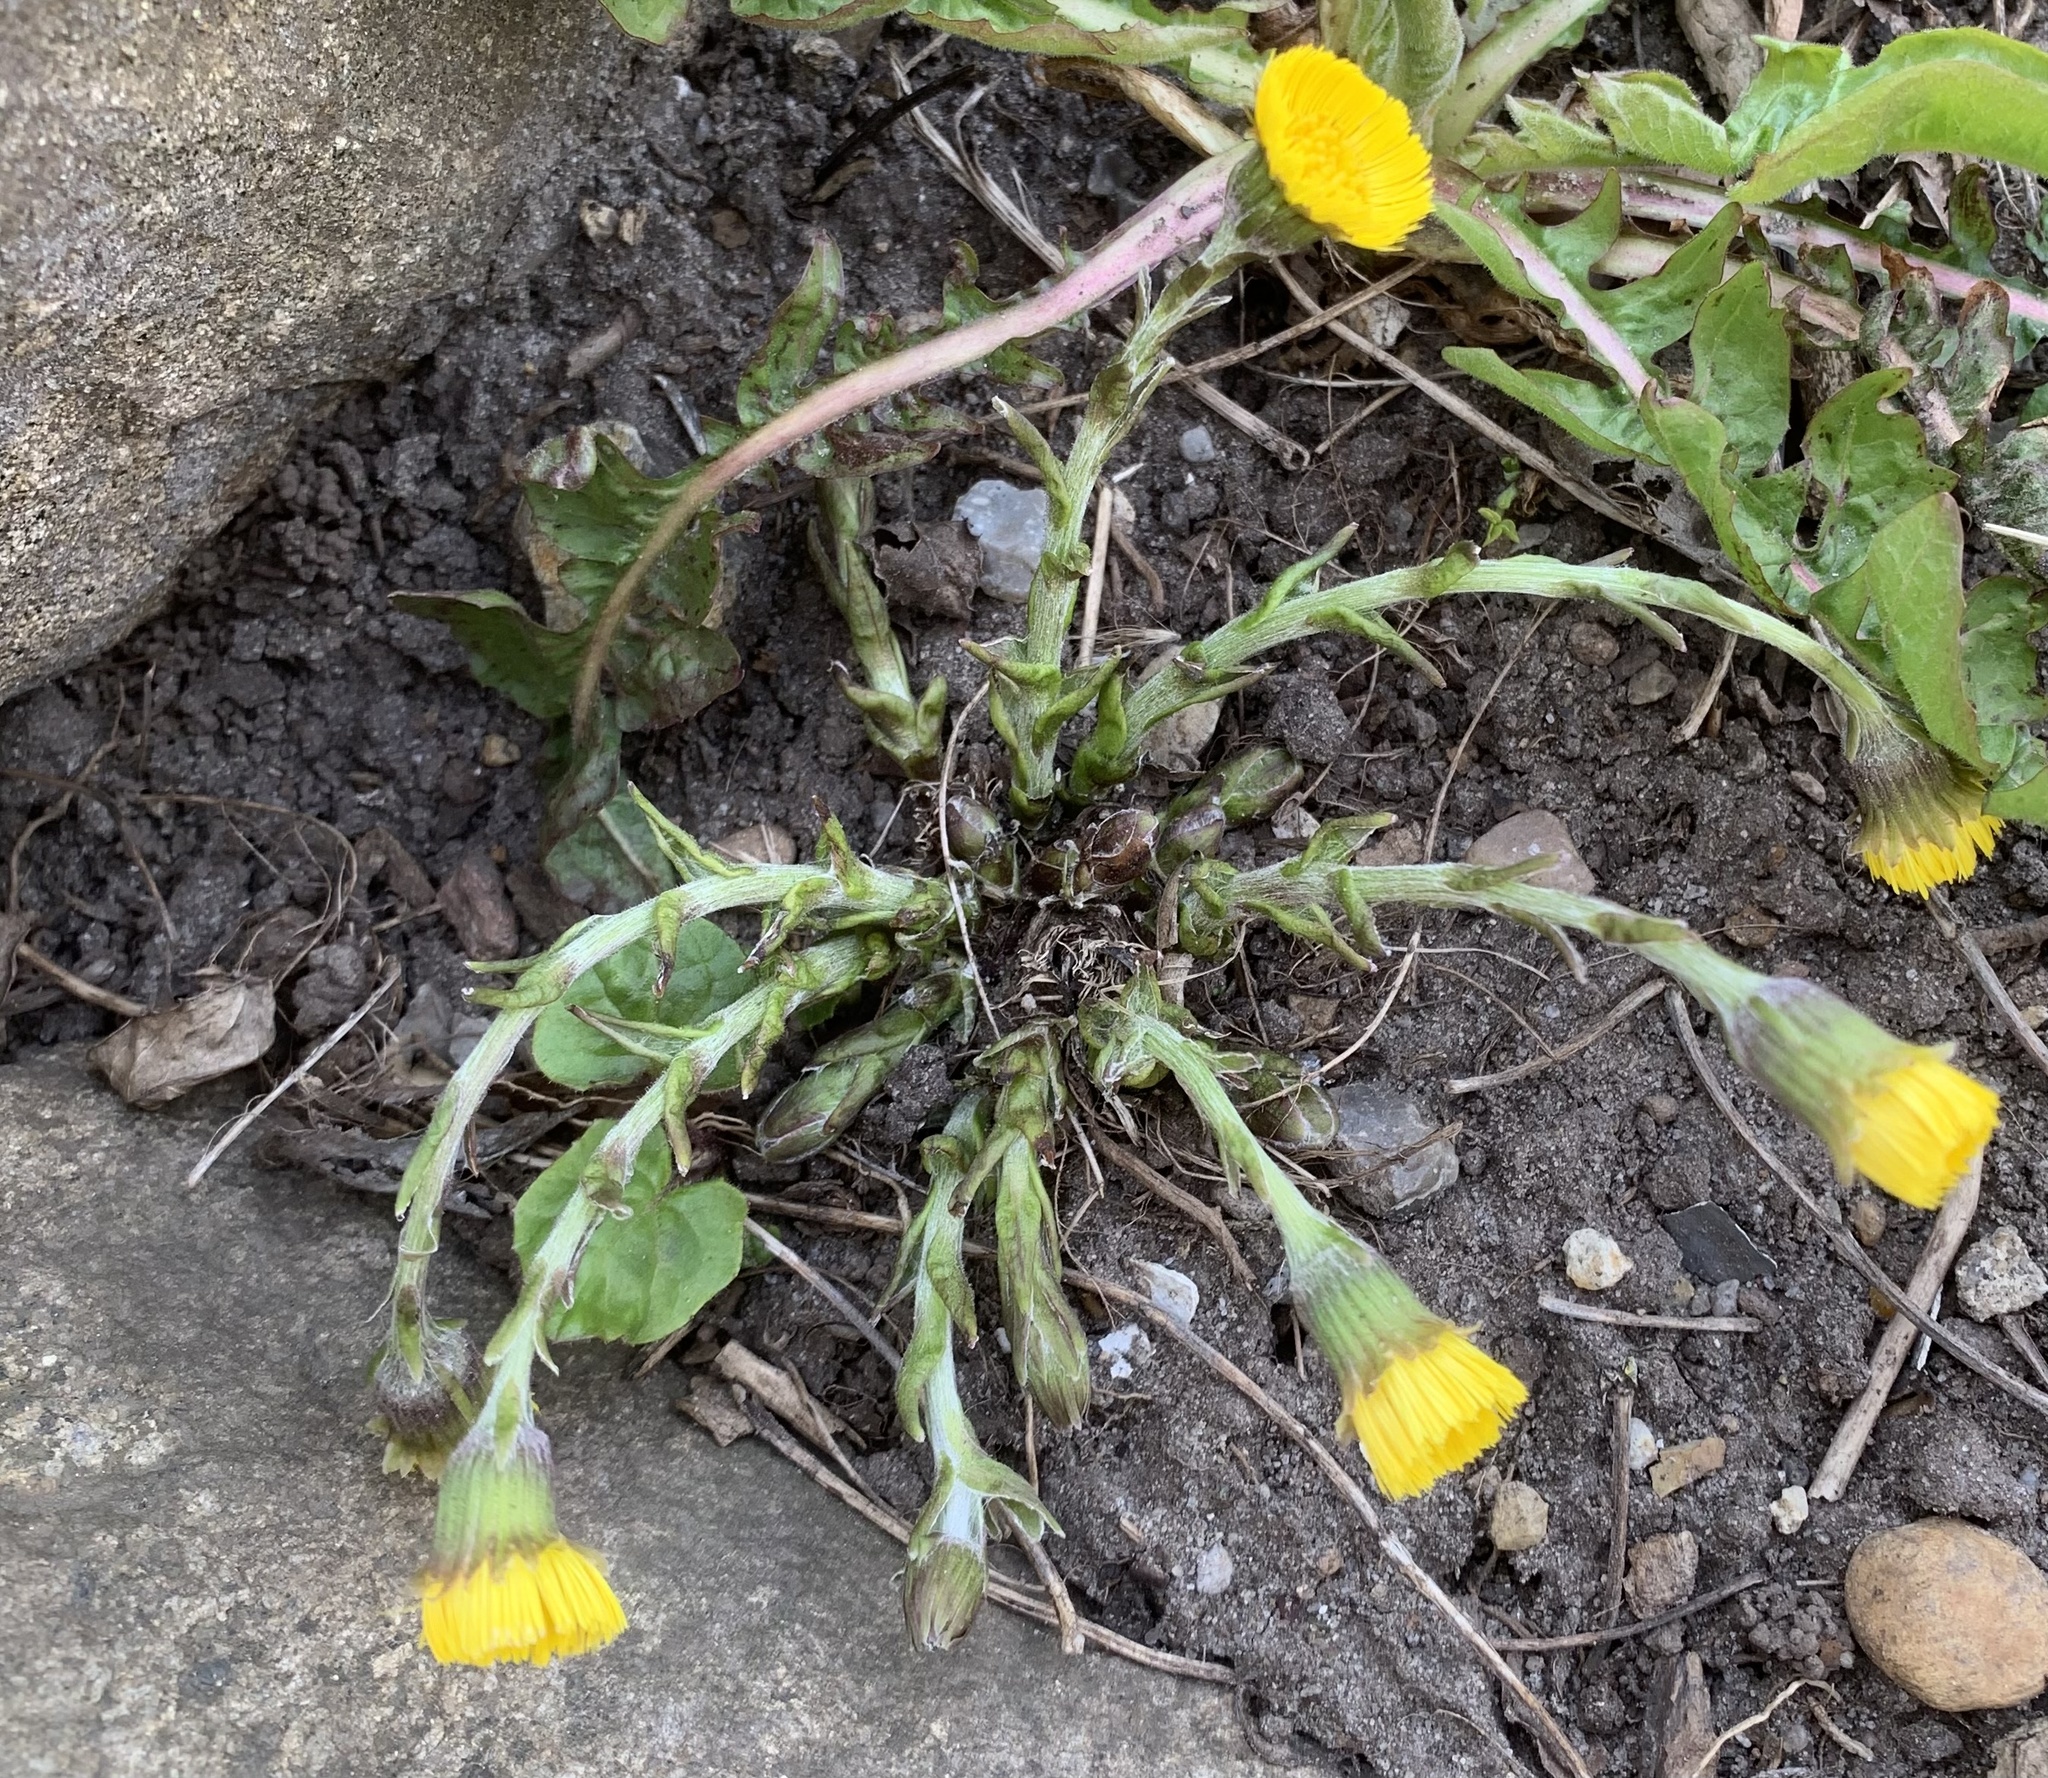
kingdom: Plantae
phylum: Tracheophyta
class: Magnoliopsida
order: Asterales
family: Asteraceae
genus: Tussilago
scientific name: Tussilago farfara
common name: Coltsfoot
